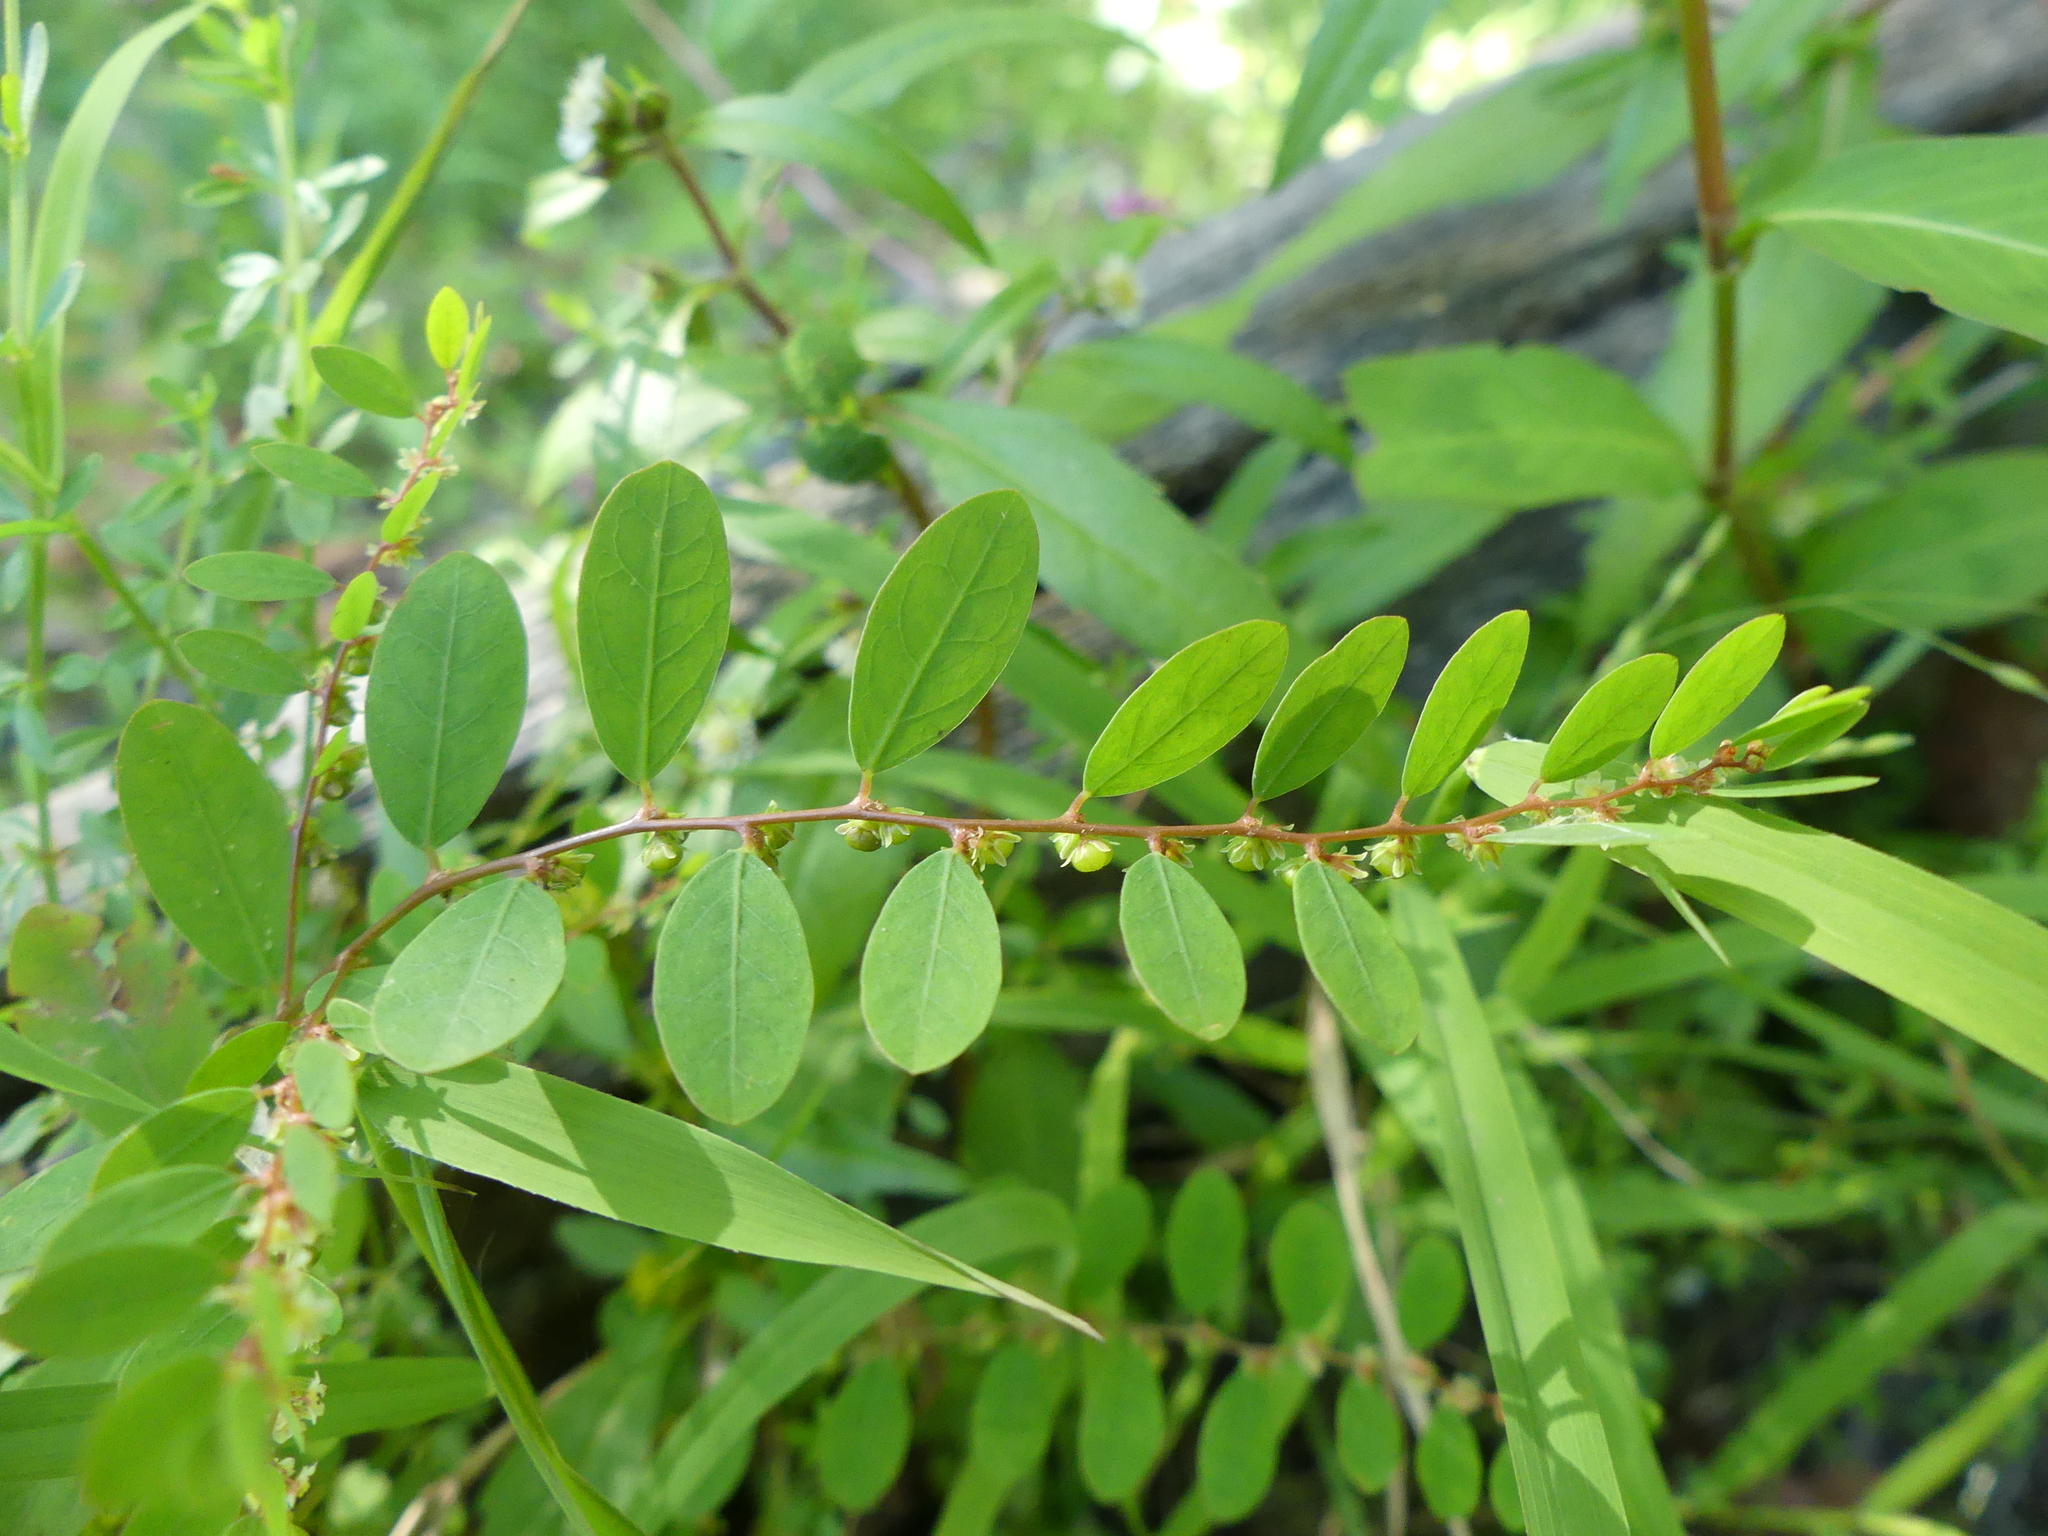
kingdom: Plantae
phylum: Tracheophyta
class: Magnoliopsida
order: Malpighiales
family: Phyllanthaceae
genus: Phyllanthus
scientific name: Phyllanthus caroliniensis
